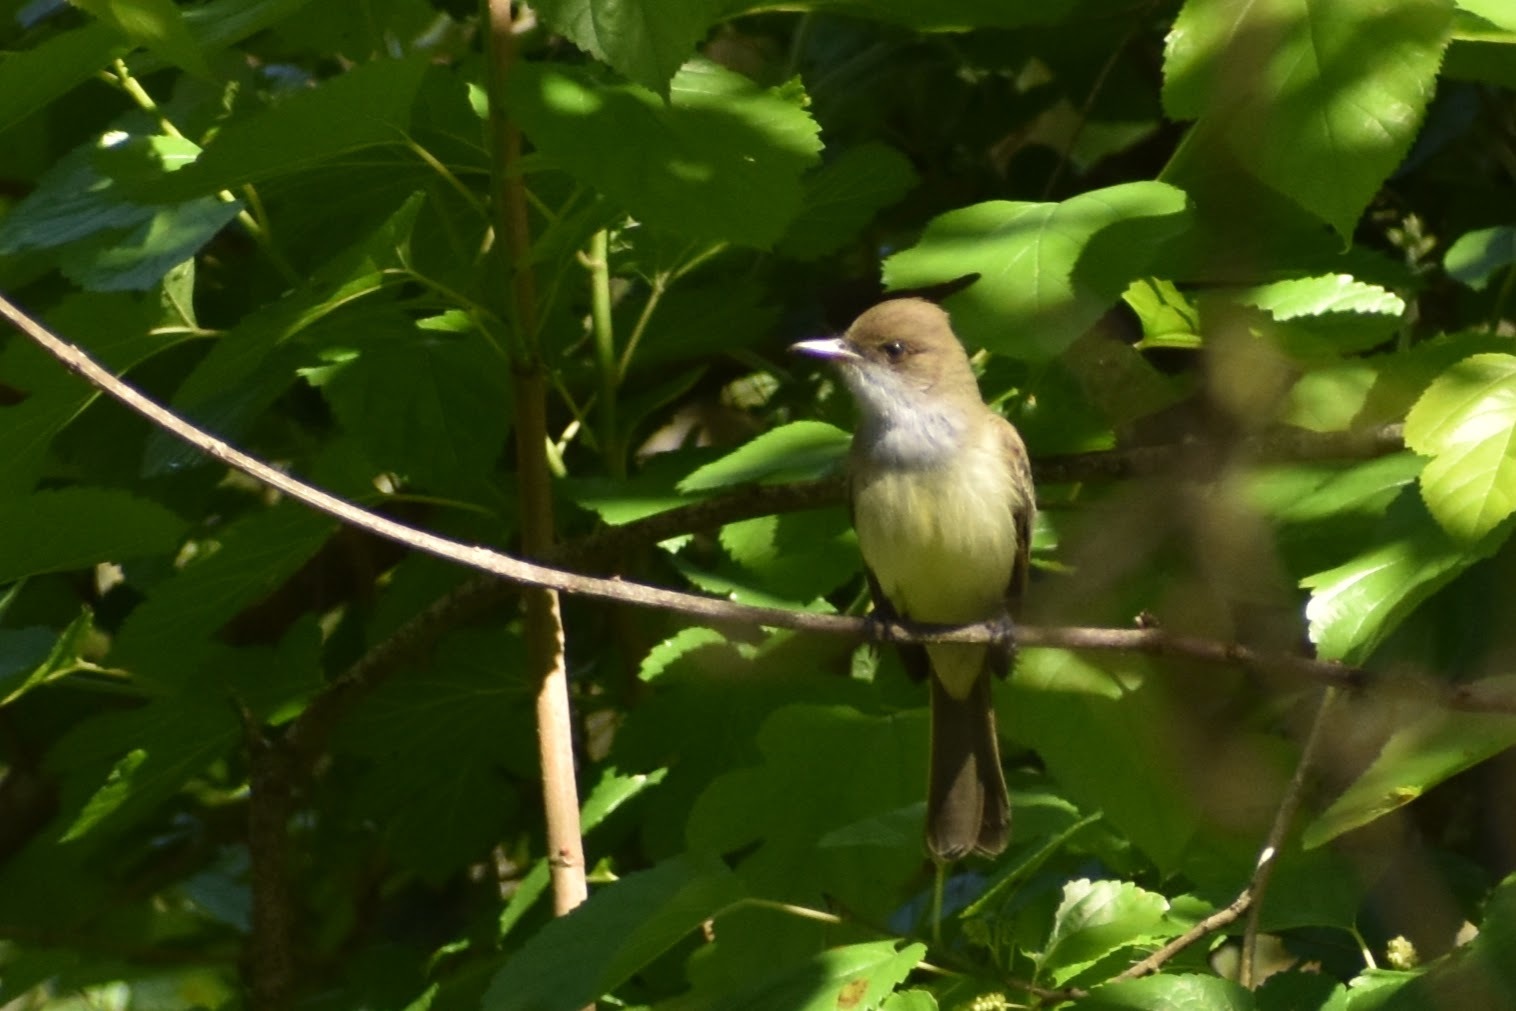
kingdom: Animalia
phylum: Chordata
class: Aves
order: Passeriformes
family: Tyrannidae
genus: Myiarchus
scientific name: Myiarchus swainsoni
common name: Swainson's flycatcher
